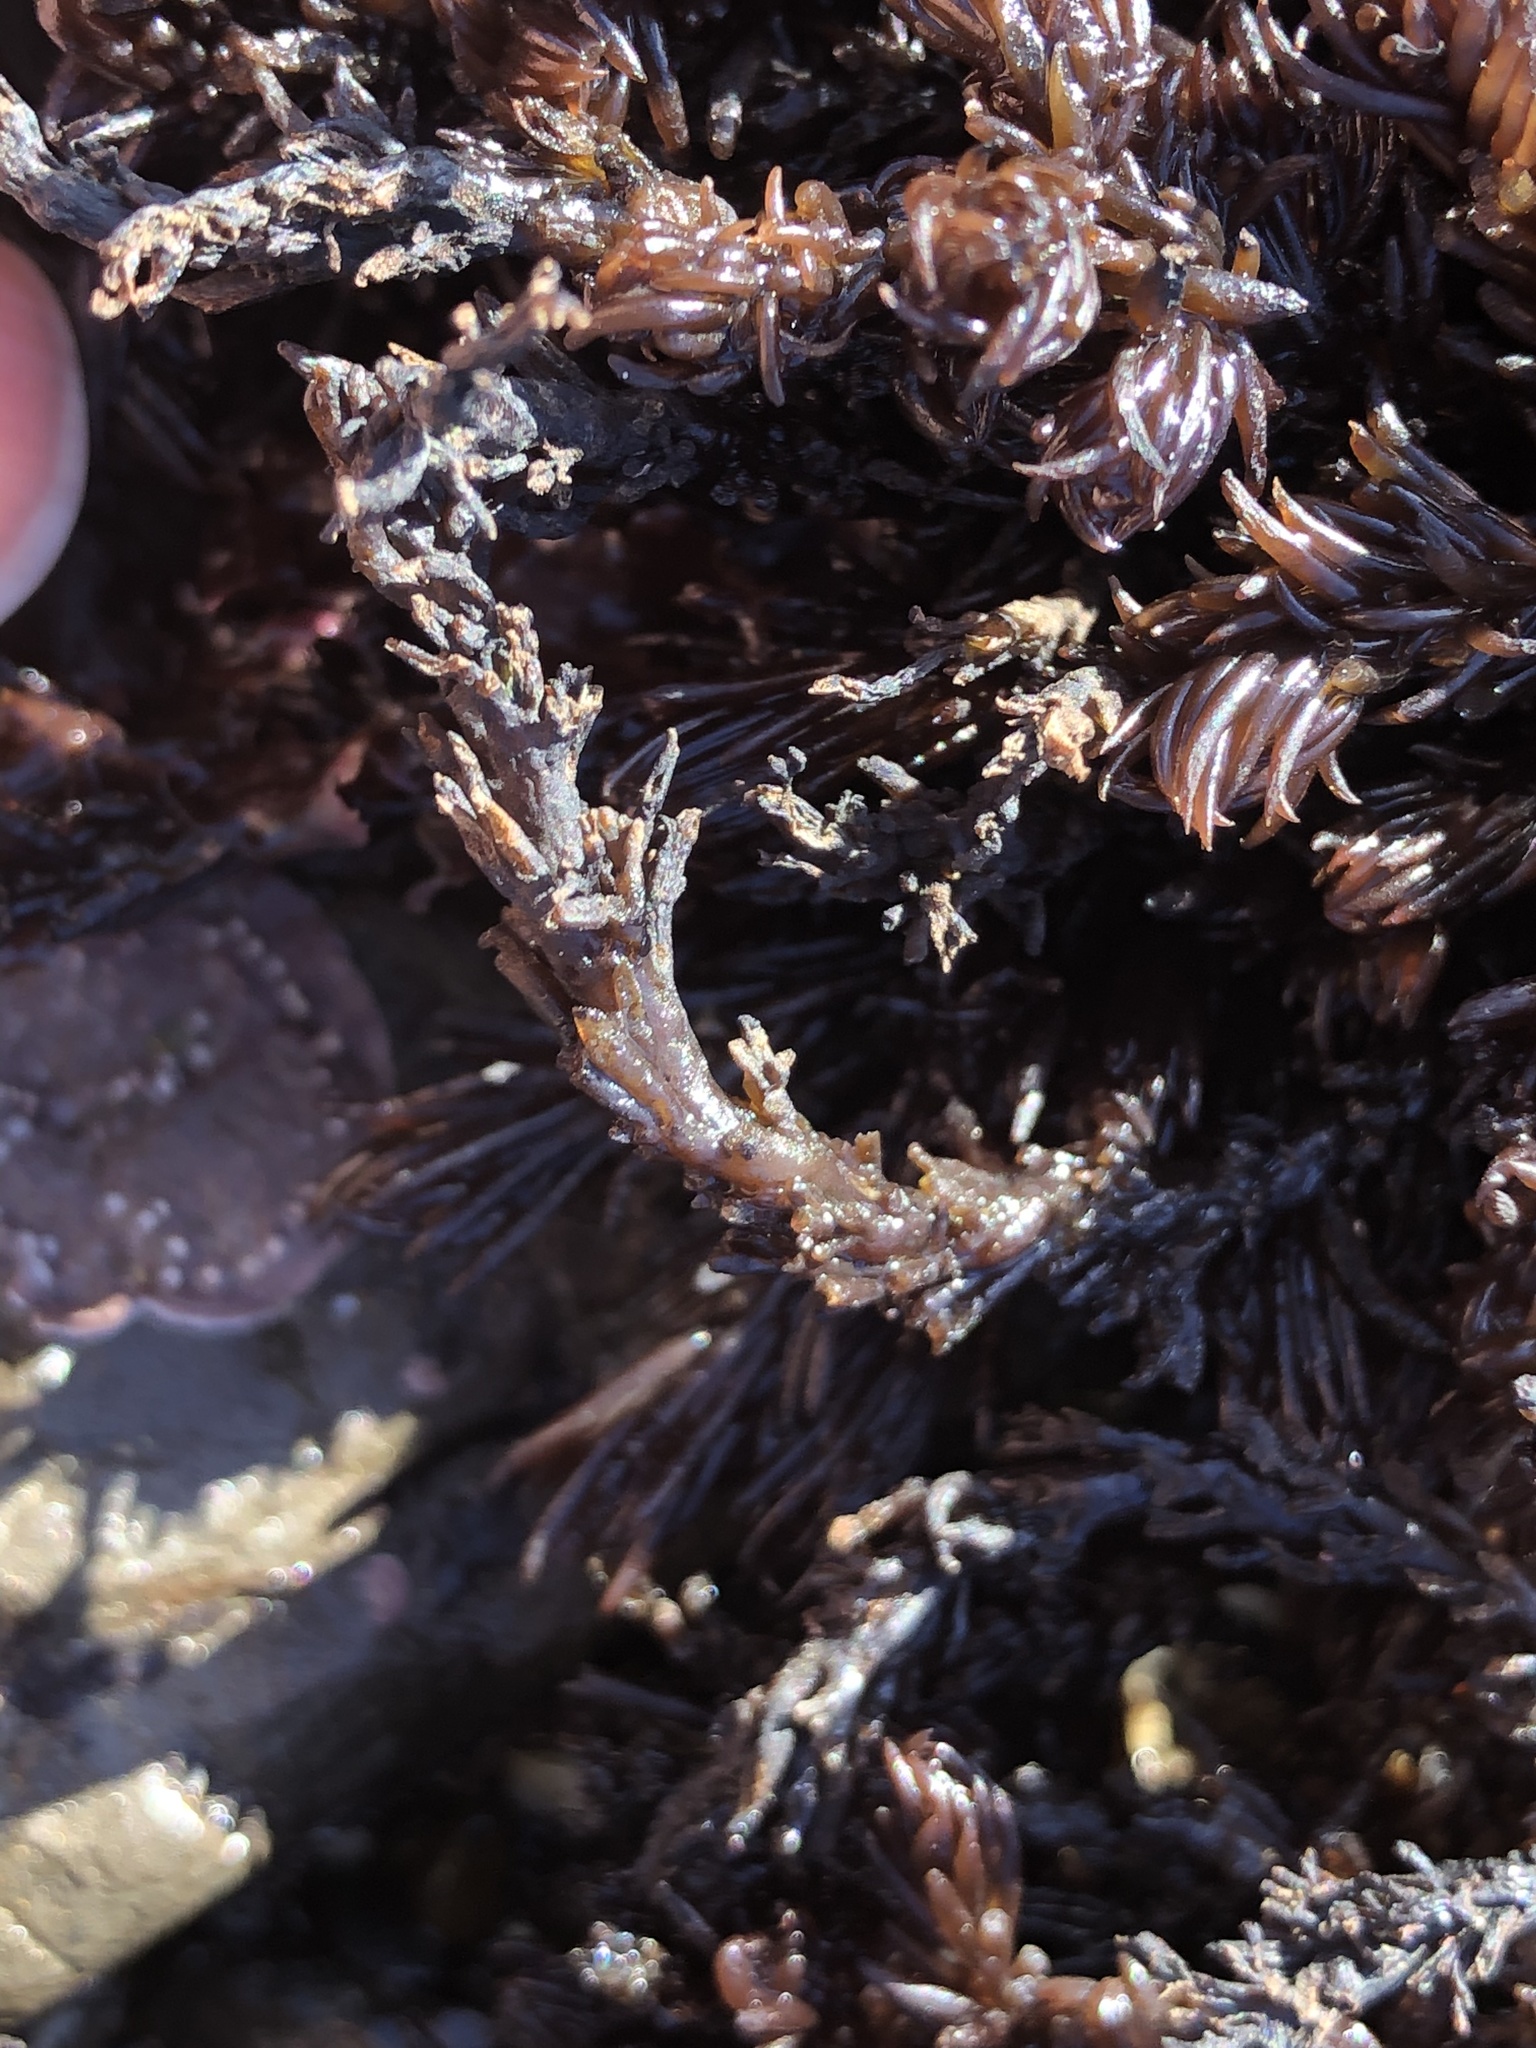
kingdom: Plantae
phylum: Rhodophyta
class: Florideophyceae
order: Ceramiales
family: Rhodomelaceae
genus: Neorhodomela
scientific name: Neorhodomela larix
